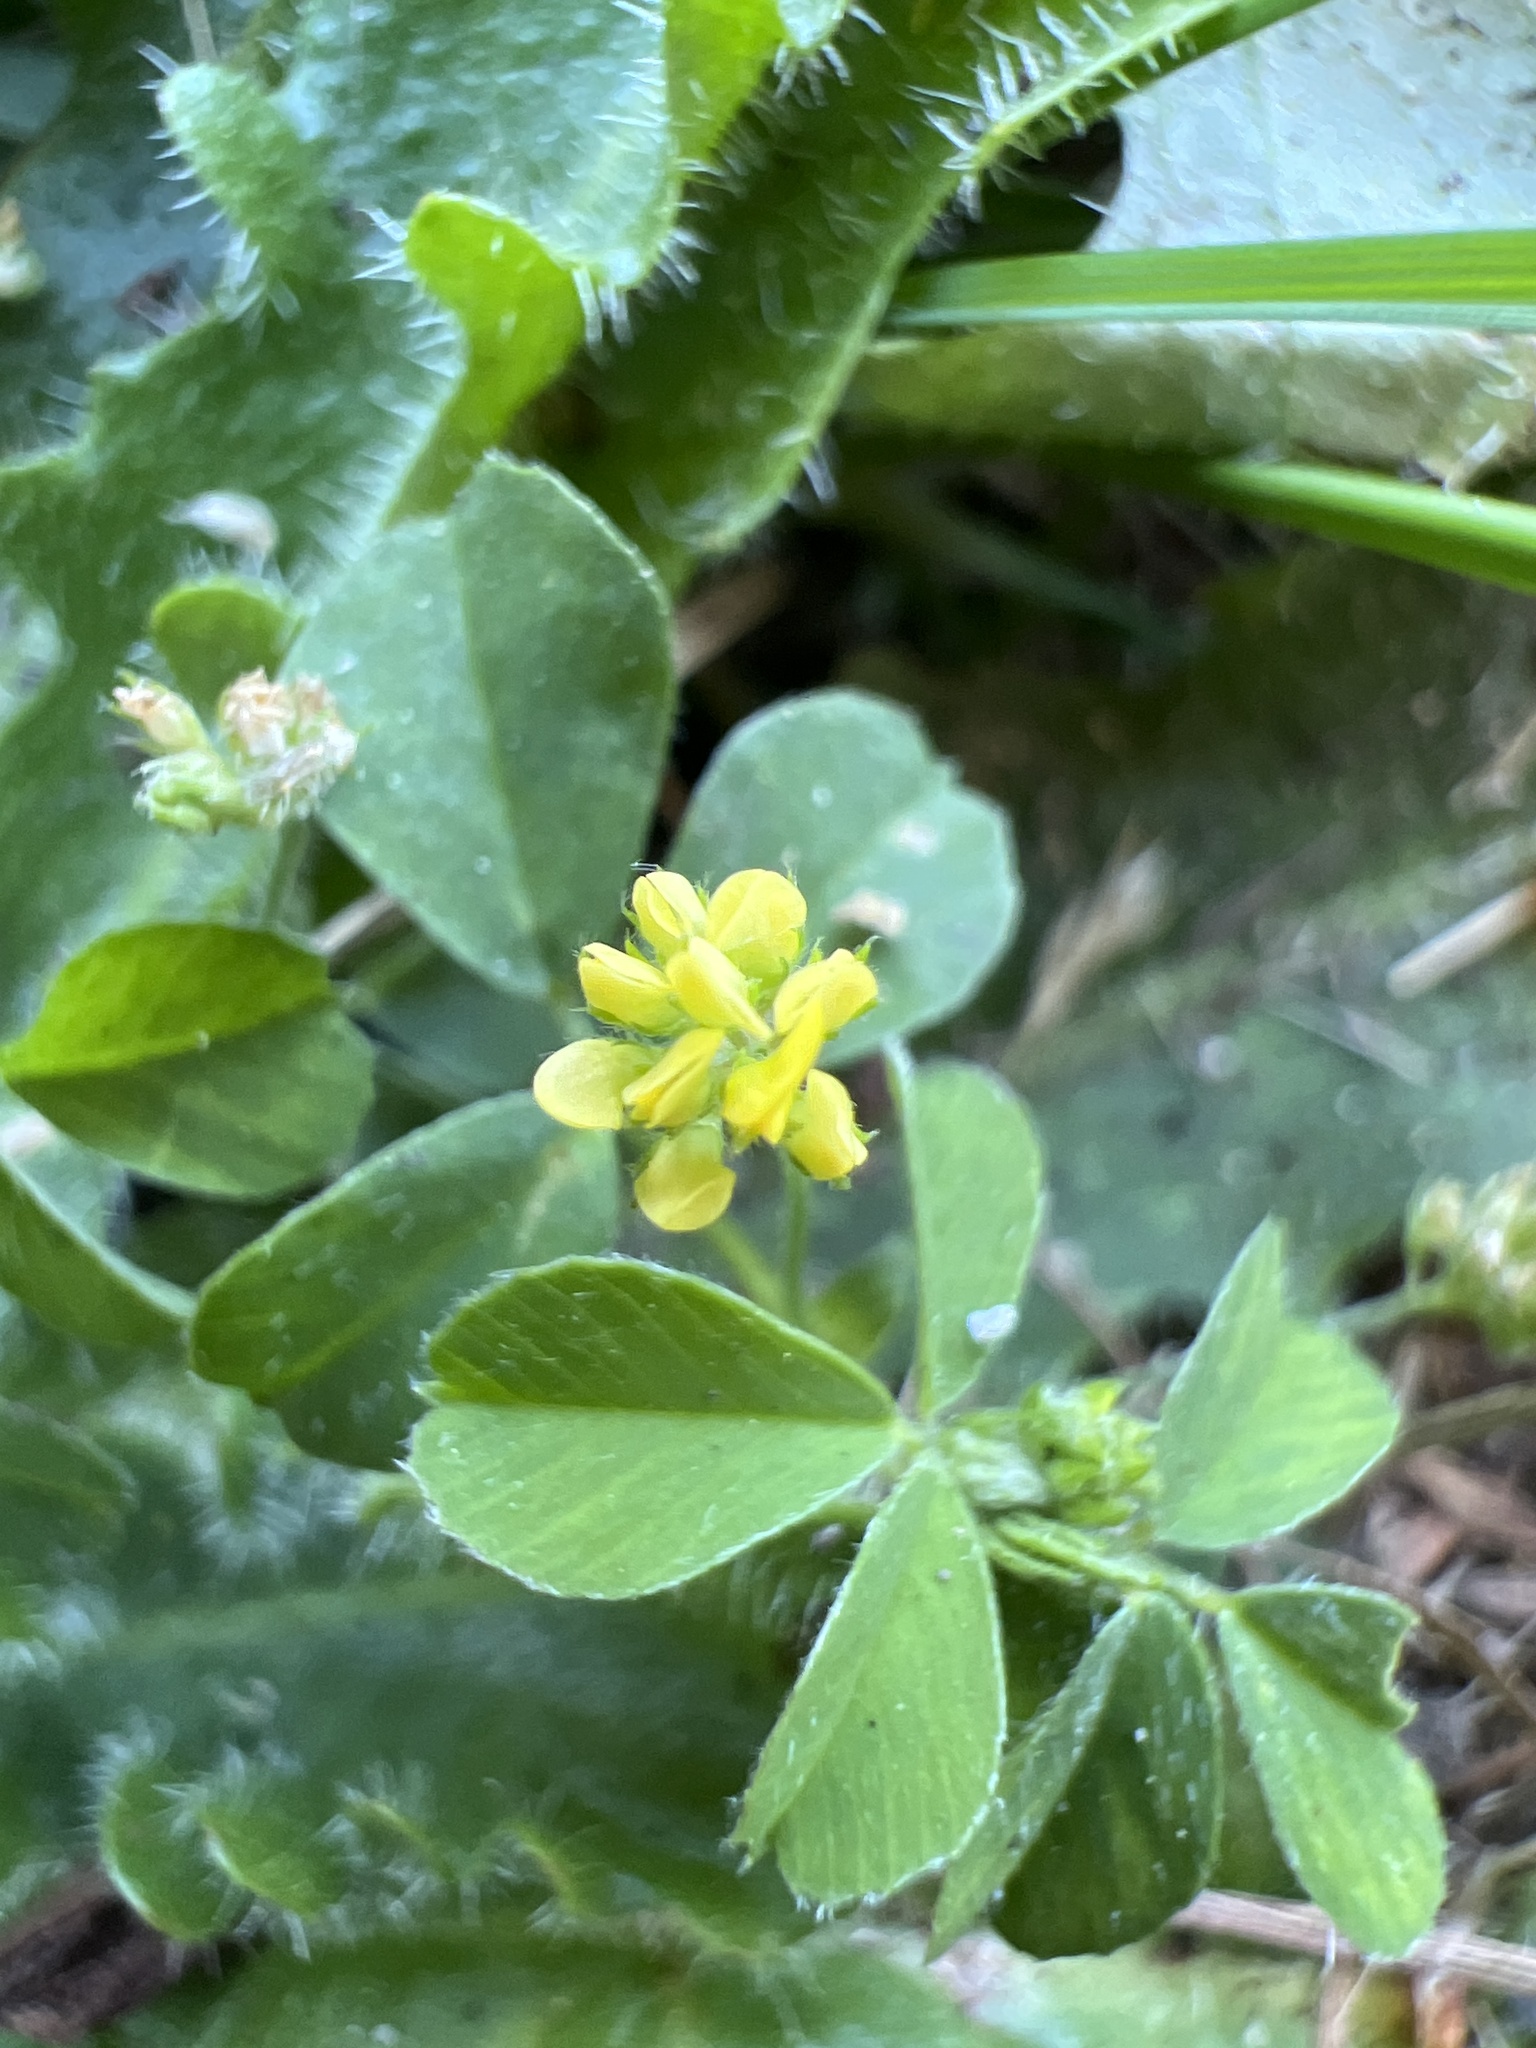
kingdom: Plantae
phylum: Tracheophyta
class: Magnoliopsida
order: Fabales
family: Fabaceae
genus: Medicago
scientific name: Medicago lupulina
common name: Black medick
